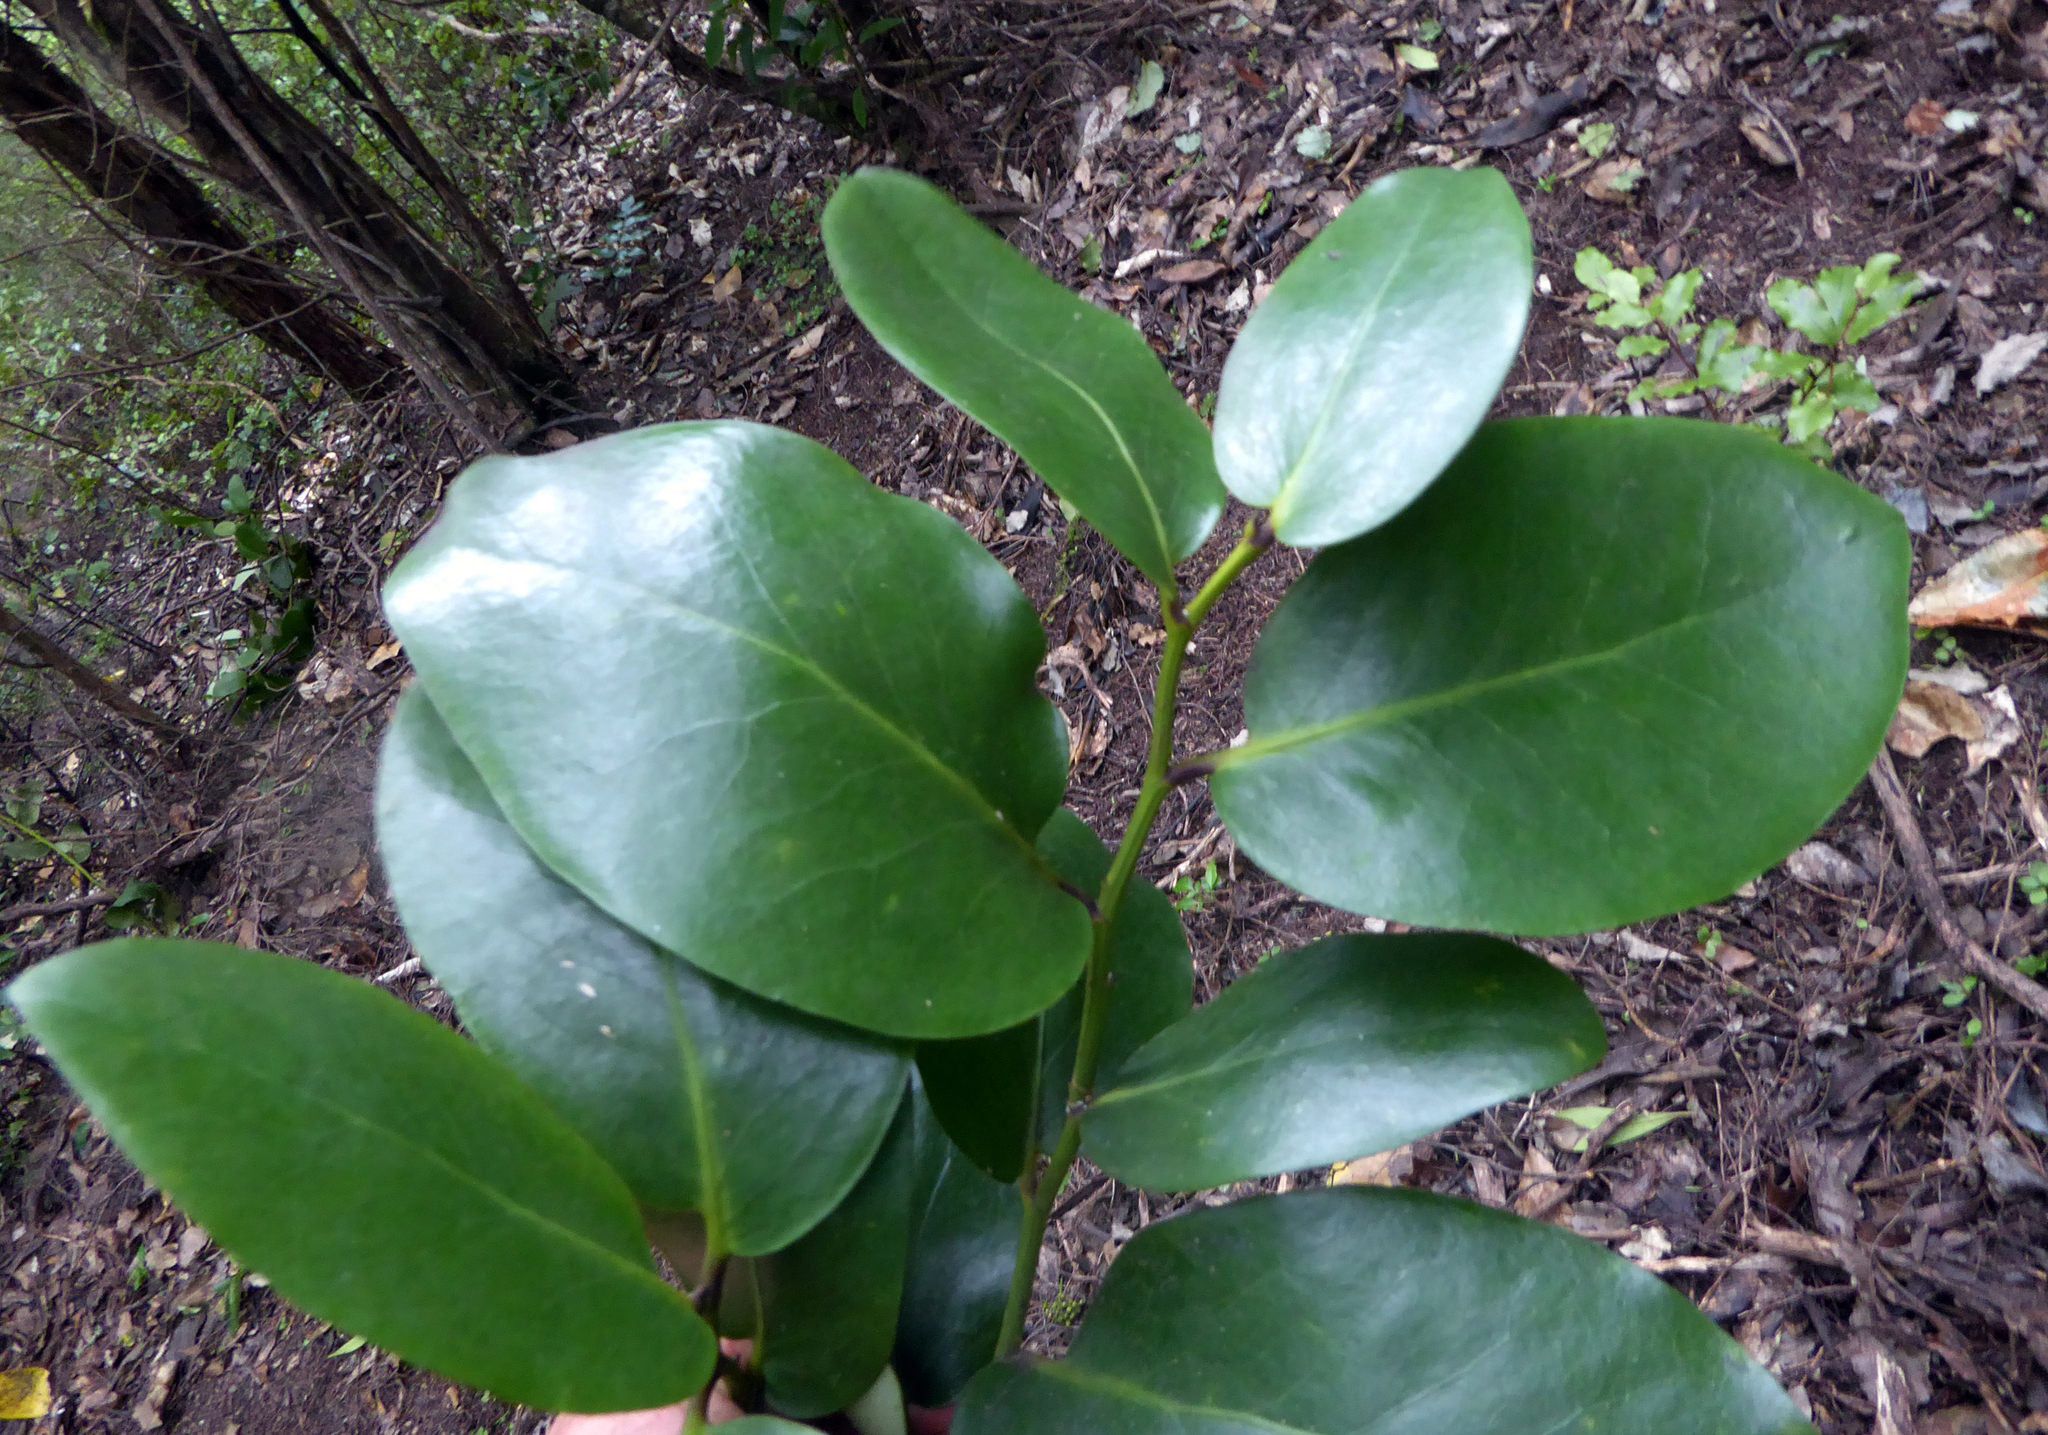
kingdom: Plantae
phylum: Tracheophyta
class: Magnoliopsida
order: Apiales
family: Griseliniaceae
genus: Griselinia
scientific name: Griselinia lucida
